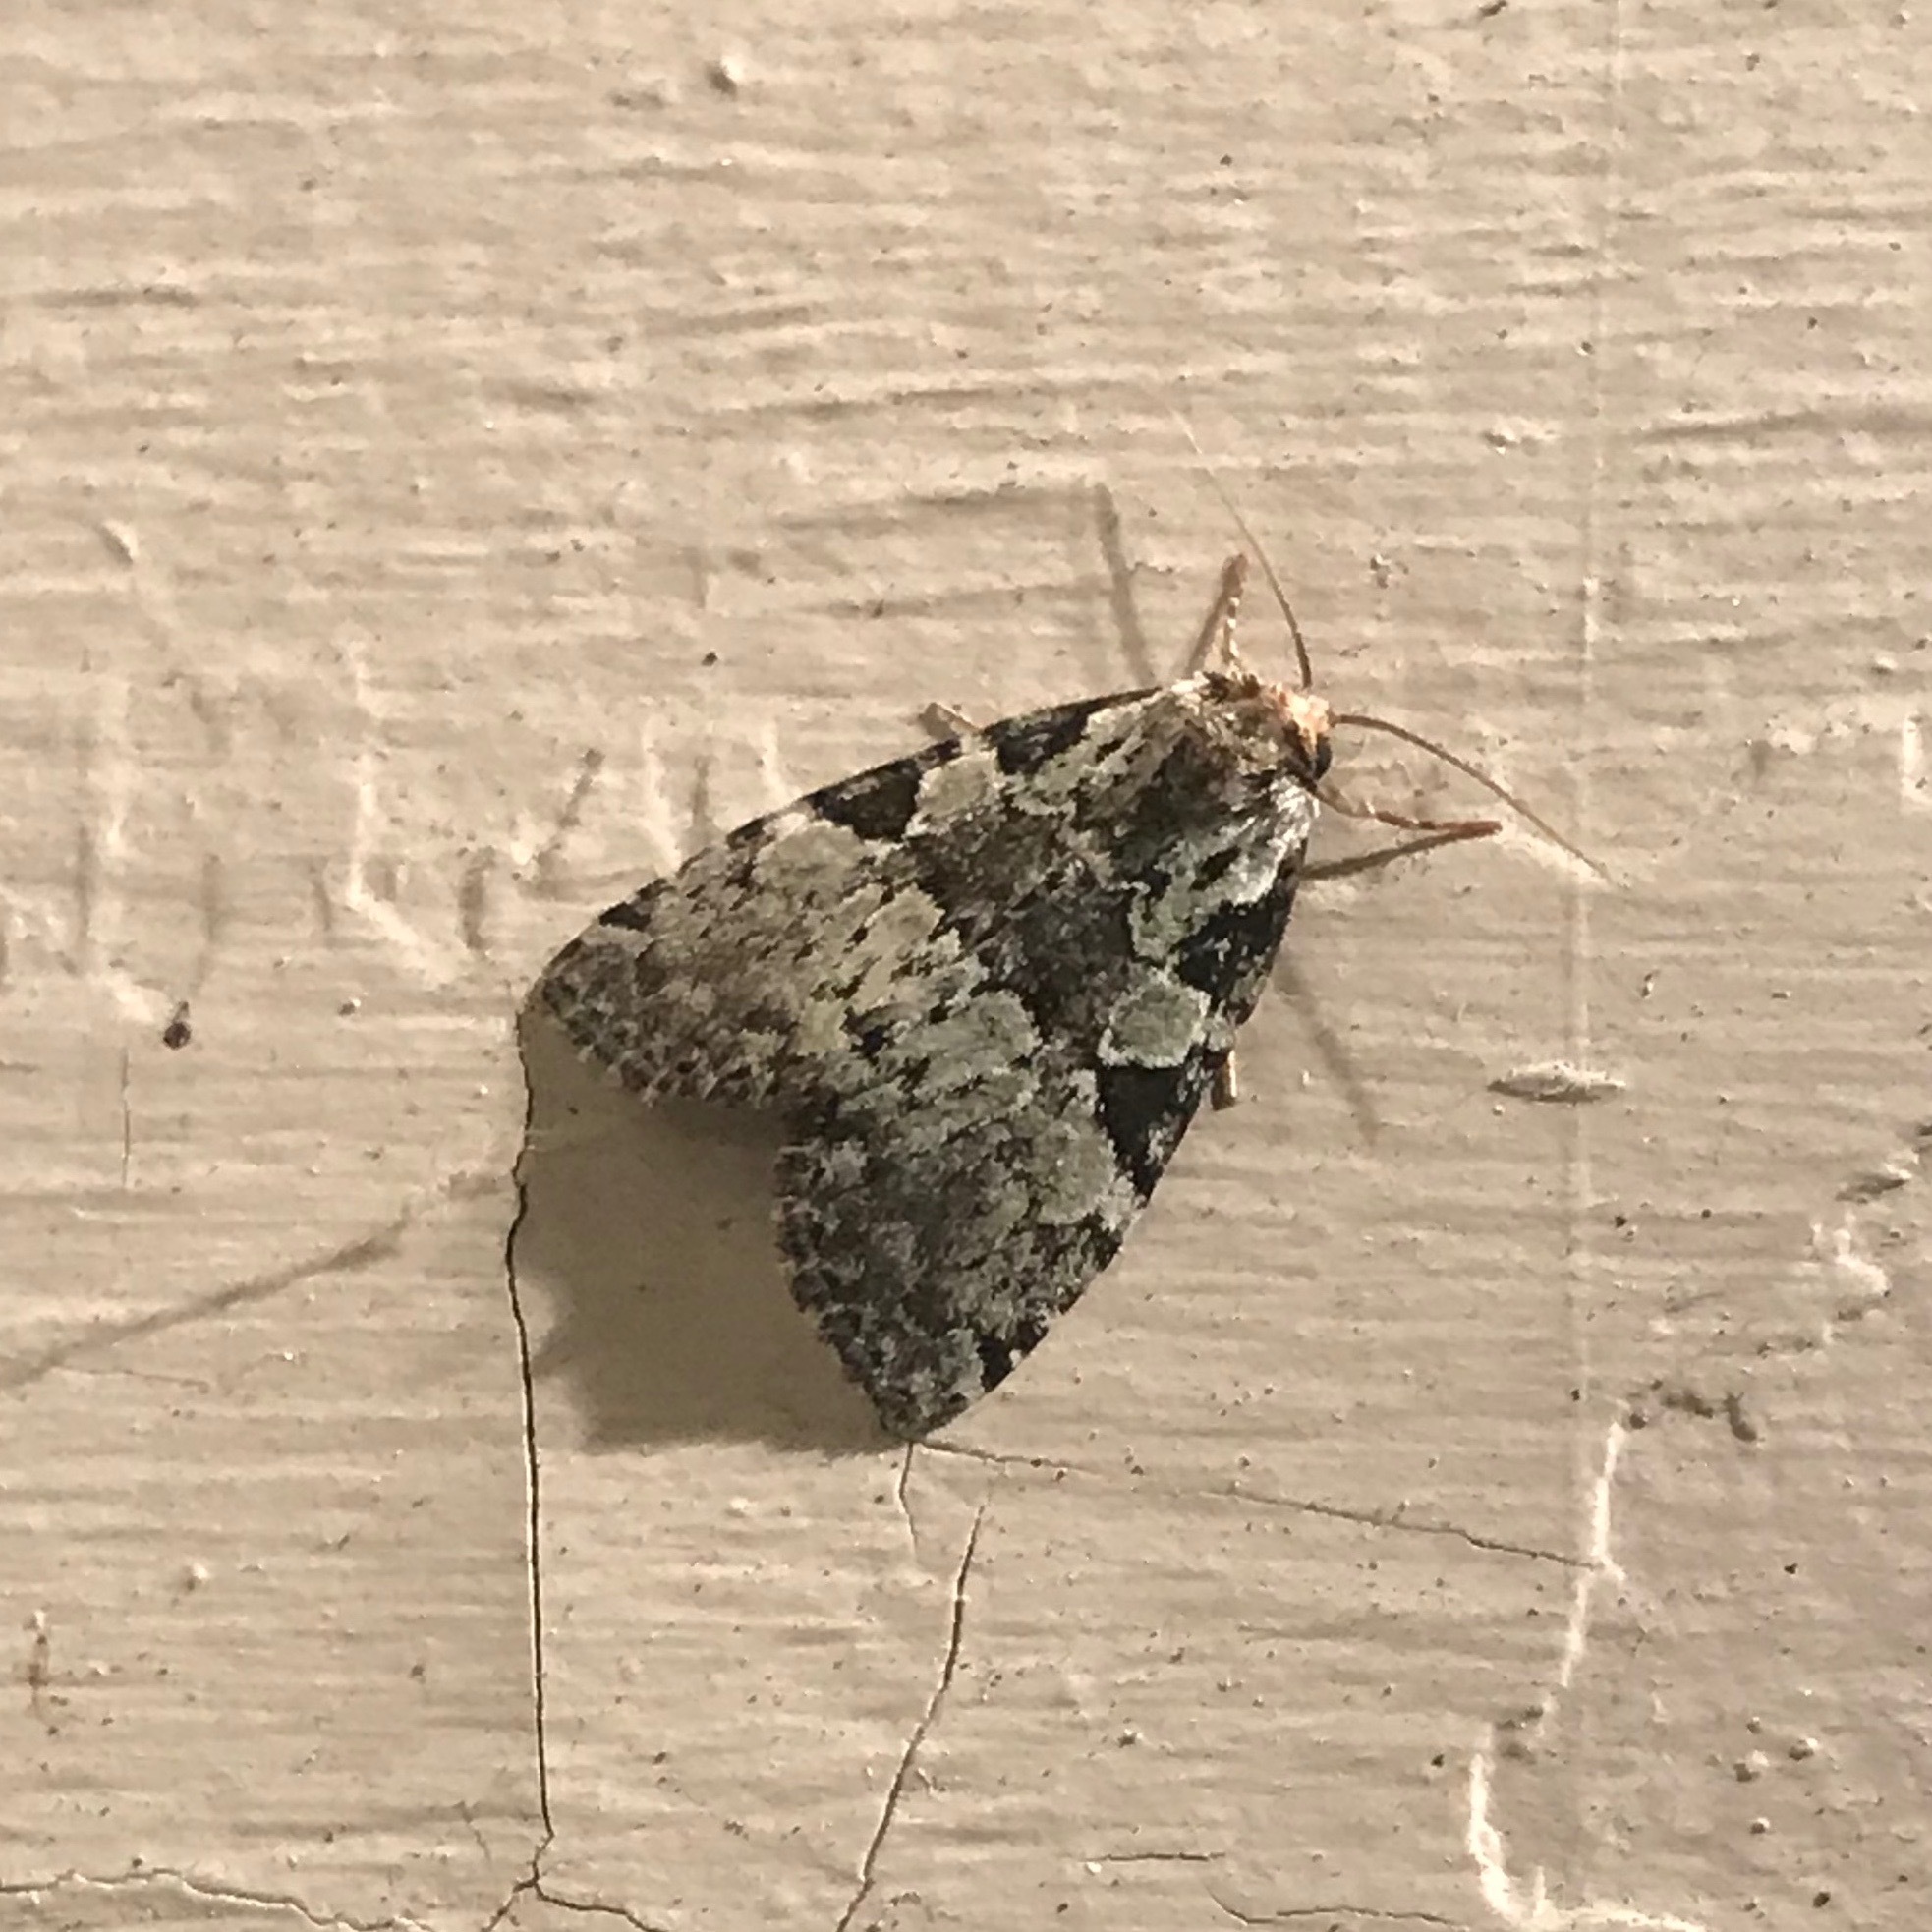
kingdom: Animalia
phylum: Arthropoda
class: Insecta
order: Lepidoptera
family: Noctuidae
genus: Leuconycta
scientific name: Leuconycta lepidula
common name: Marbled-green leuconycta moth
